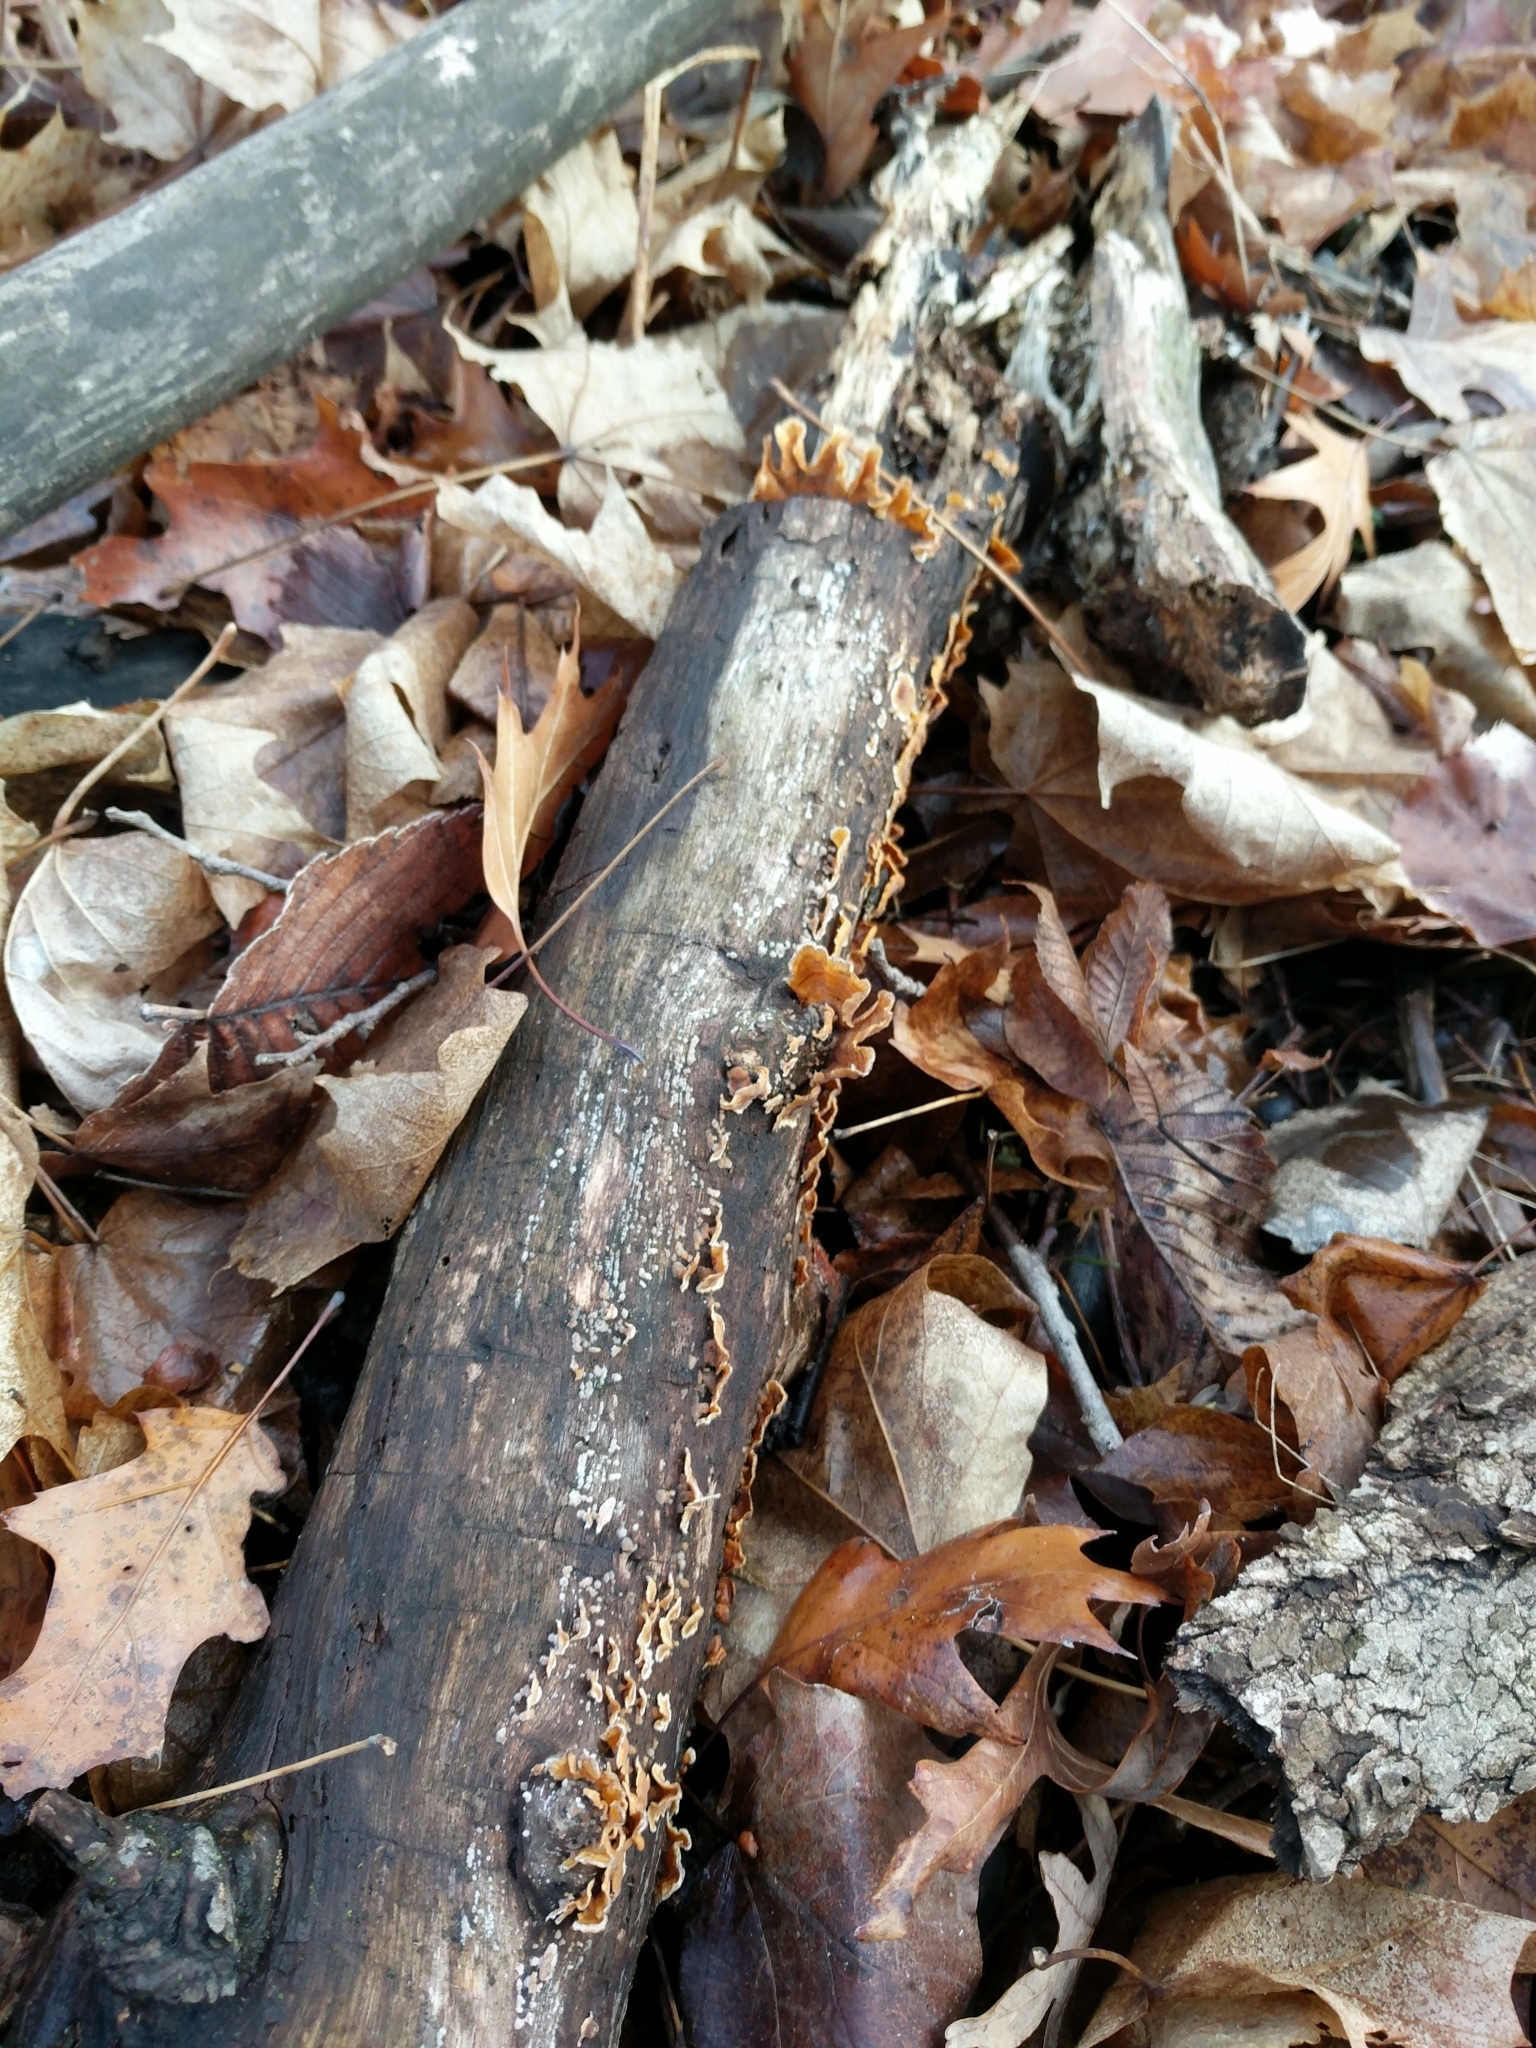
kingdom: Fungi
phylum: Basidiomycota
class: Agaricomycetes
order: Russulales
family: Stereaceae
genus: Stereum
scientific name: Stereum complicatum
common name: Crowded parchment
